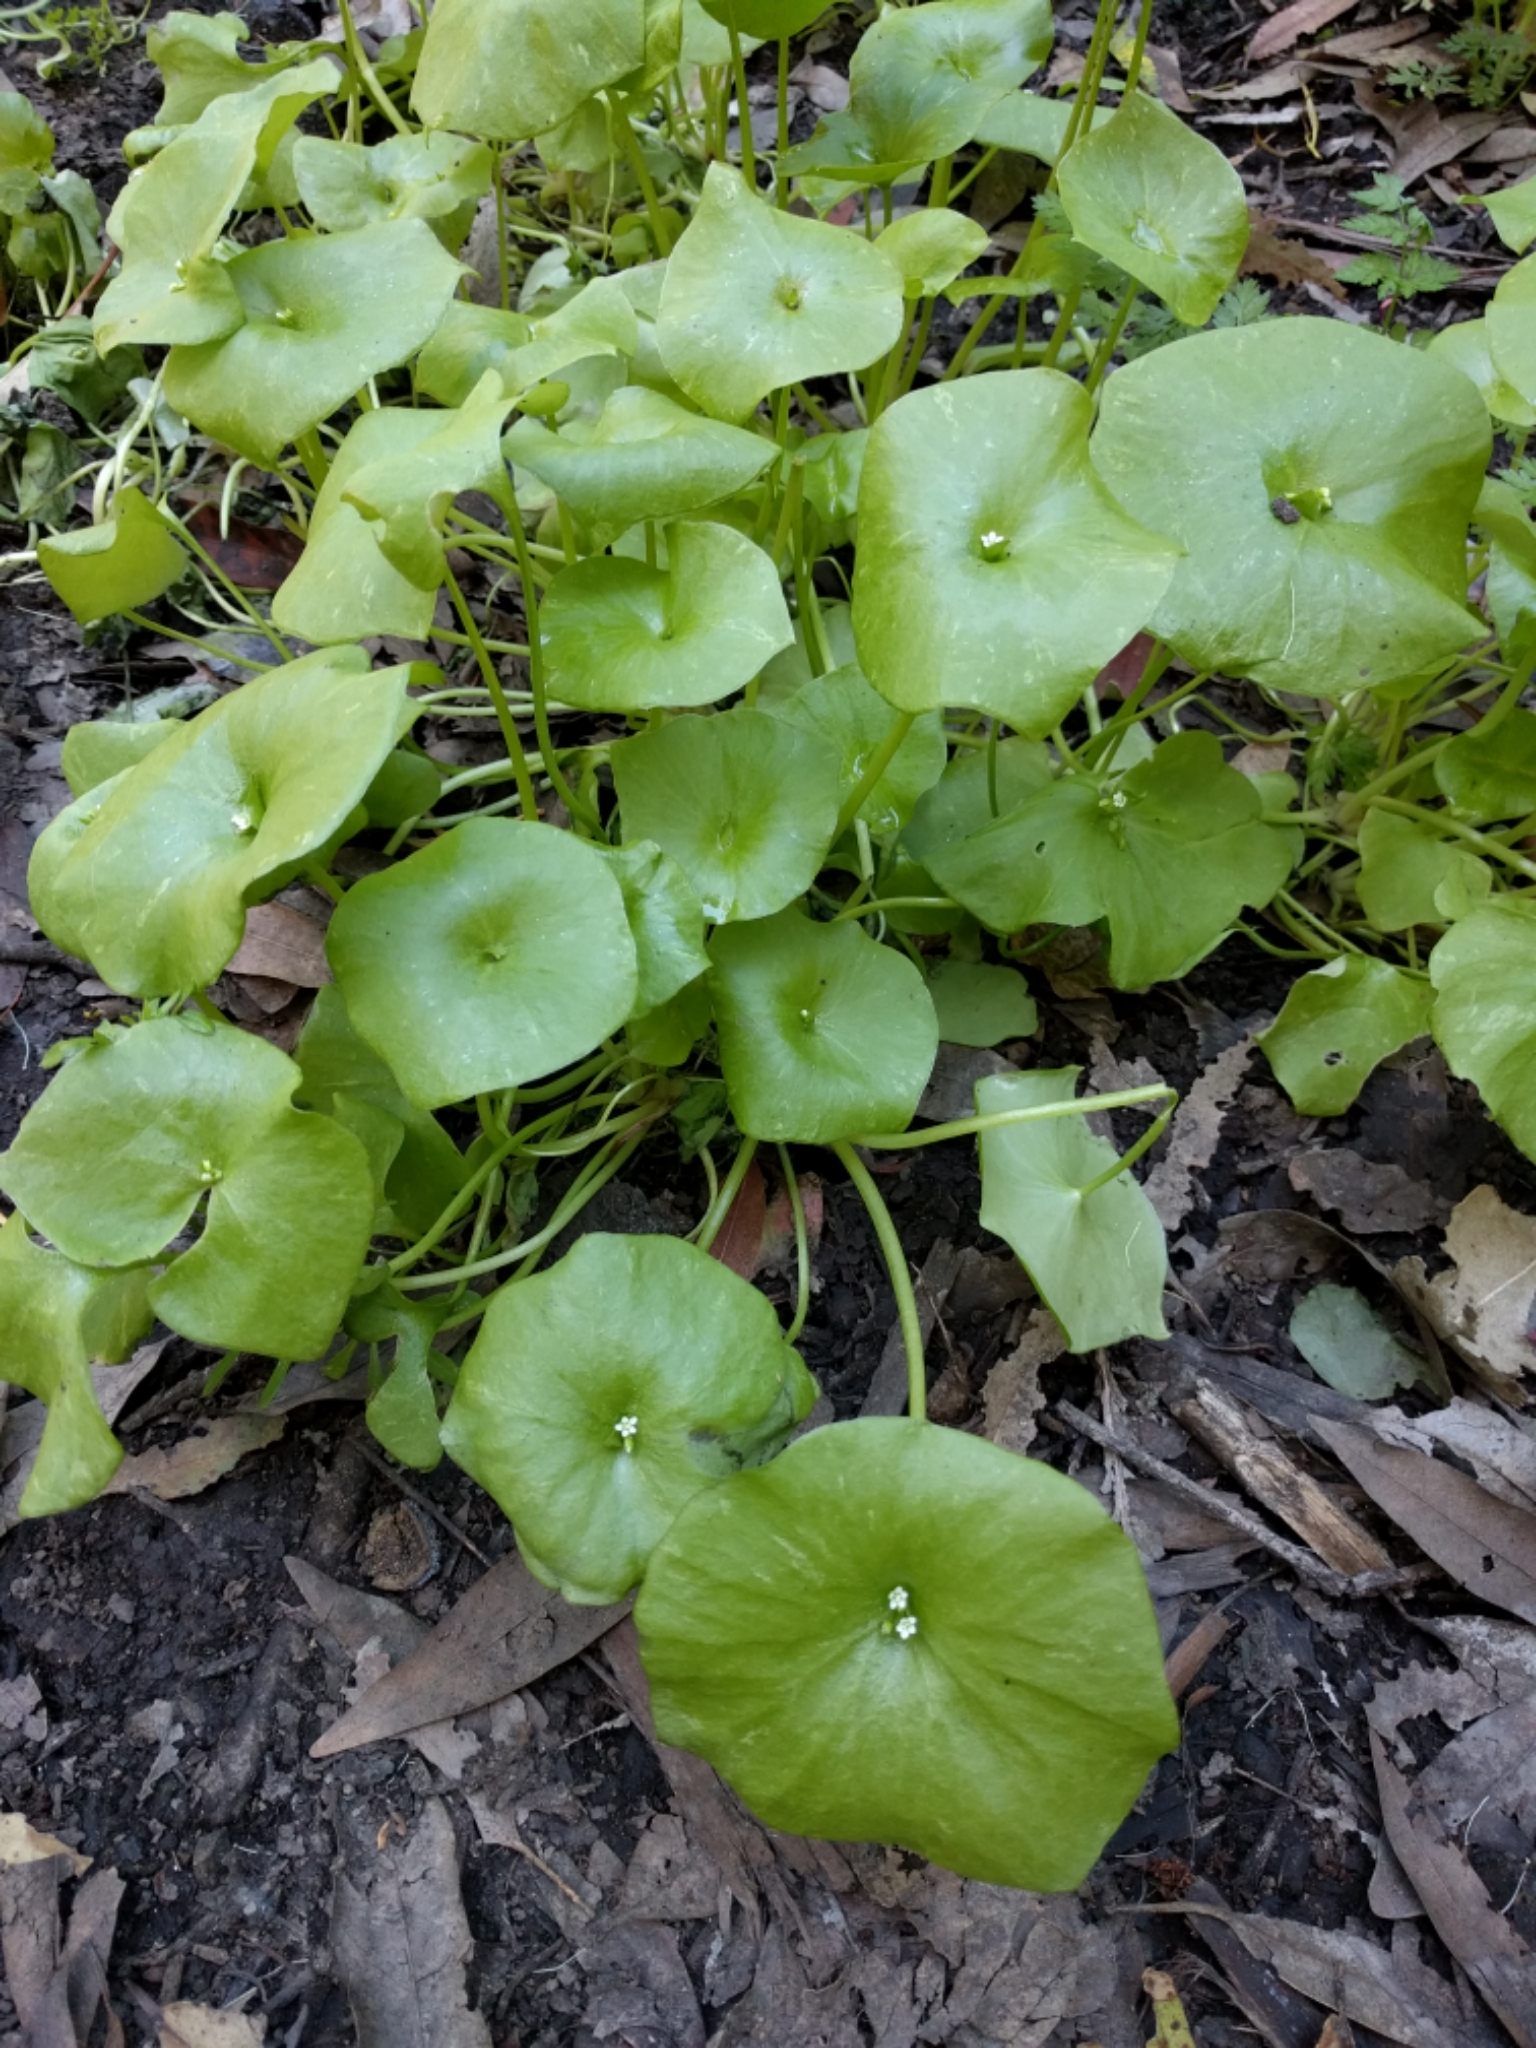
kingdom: Plantae
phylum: Tracheophyta
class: Magnoliopsida
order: Caryophyllales
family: Montiaceae
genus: Claytonia
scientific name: Claytonia perfoliata
